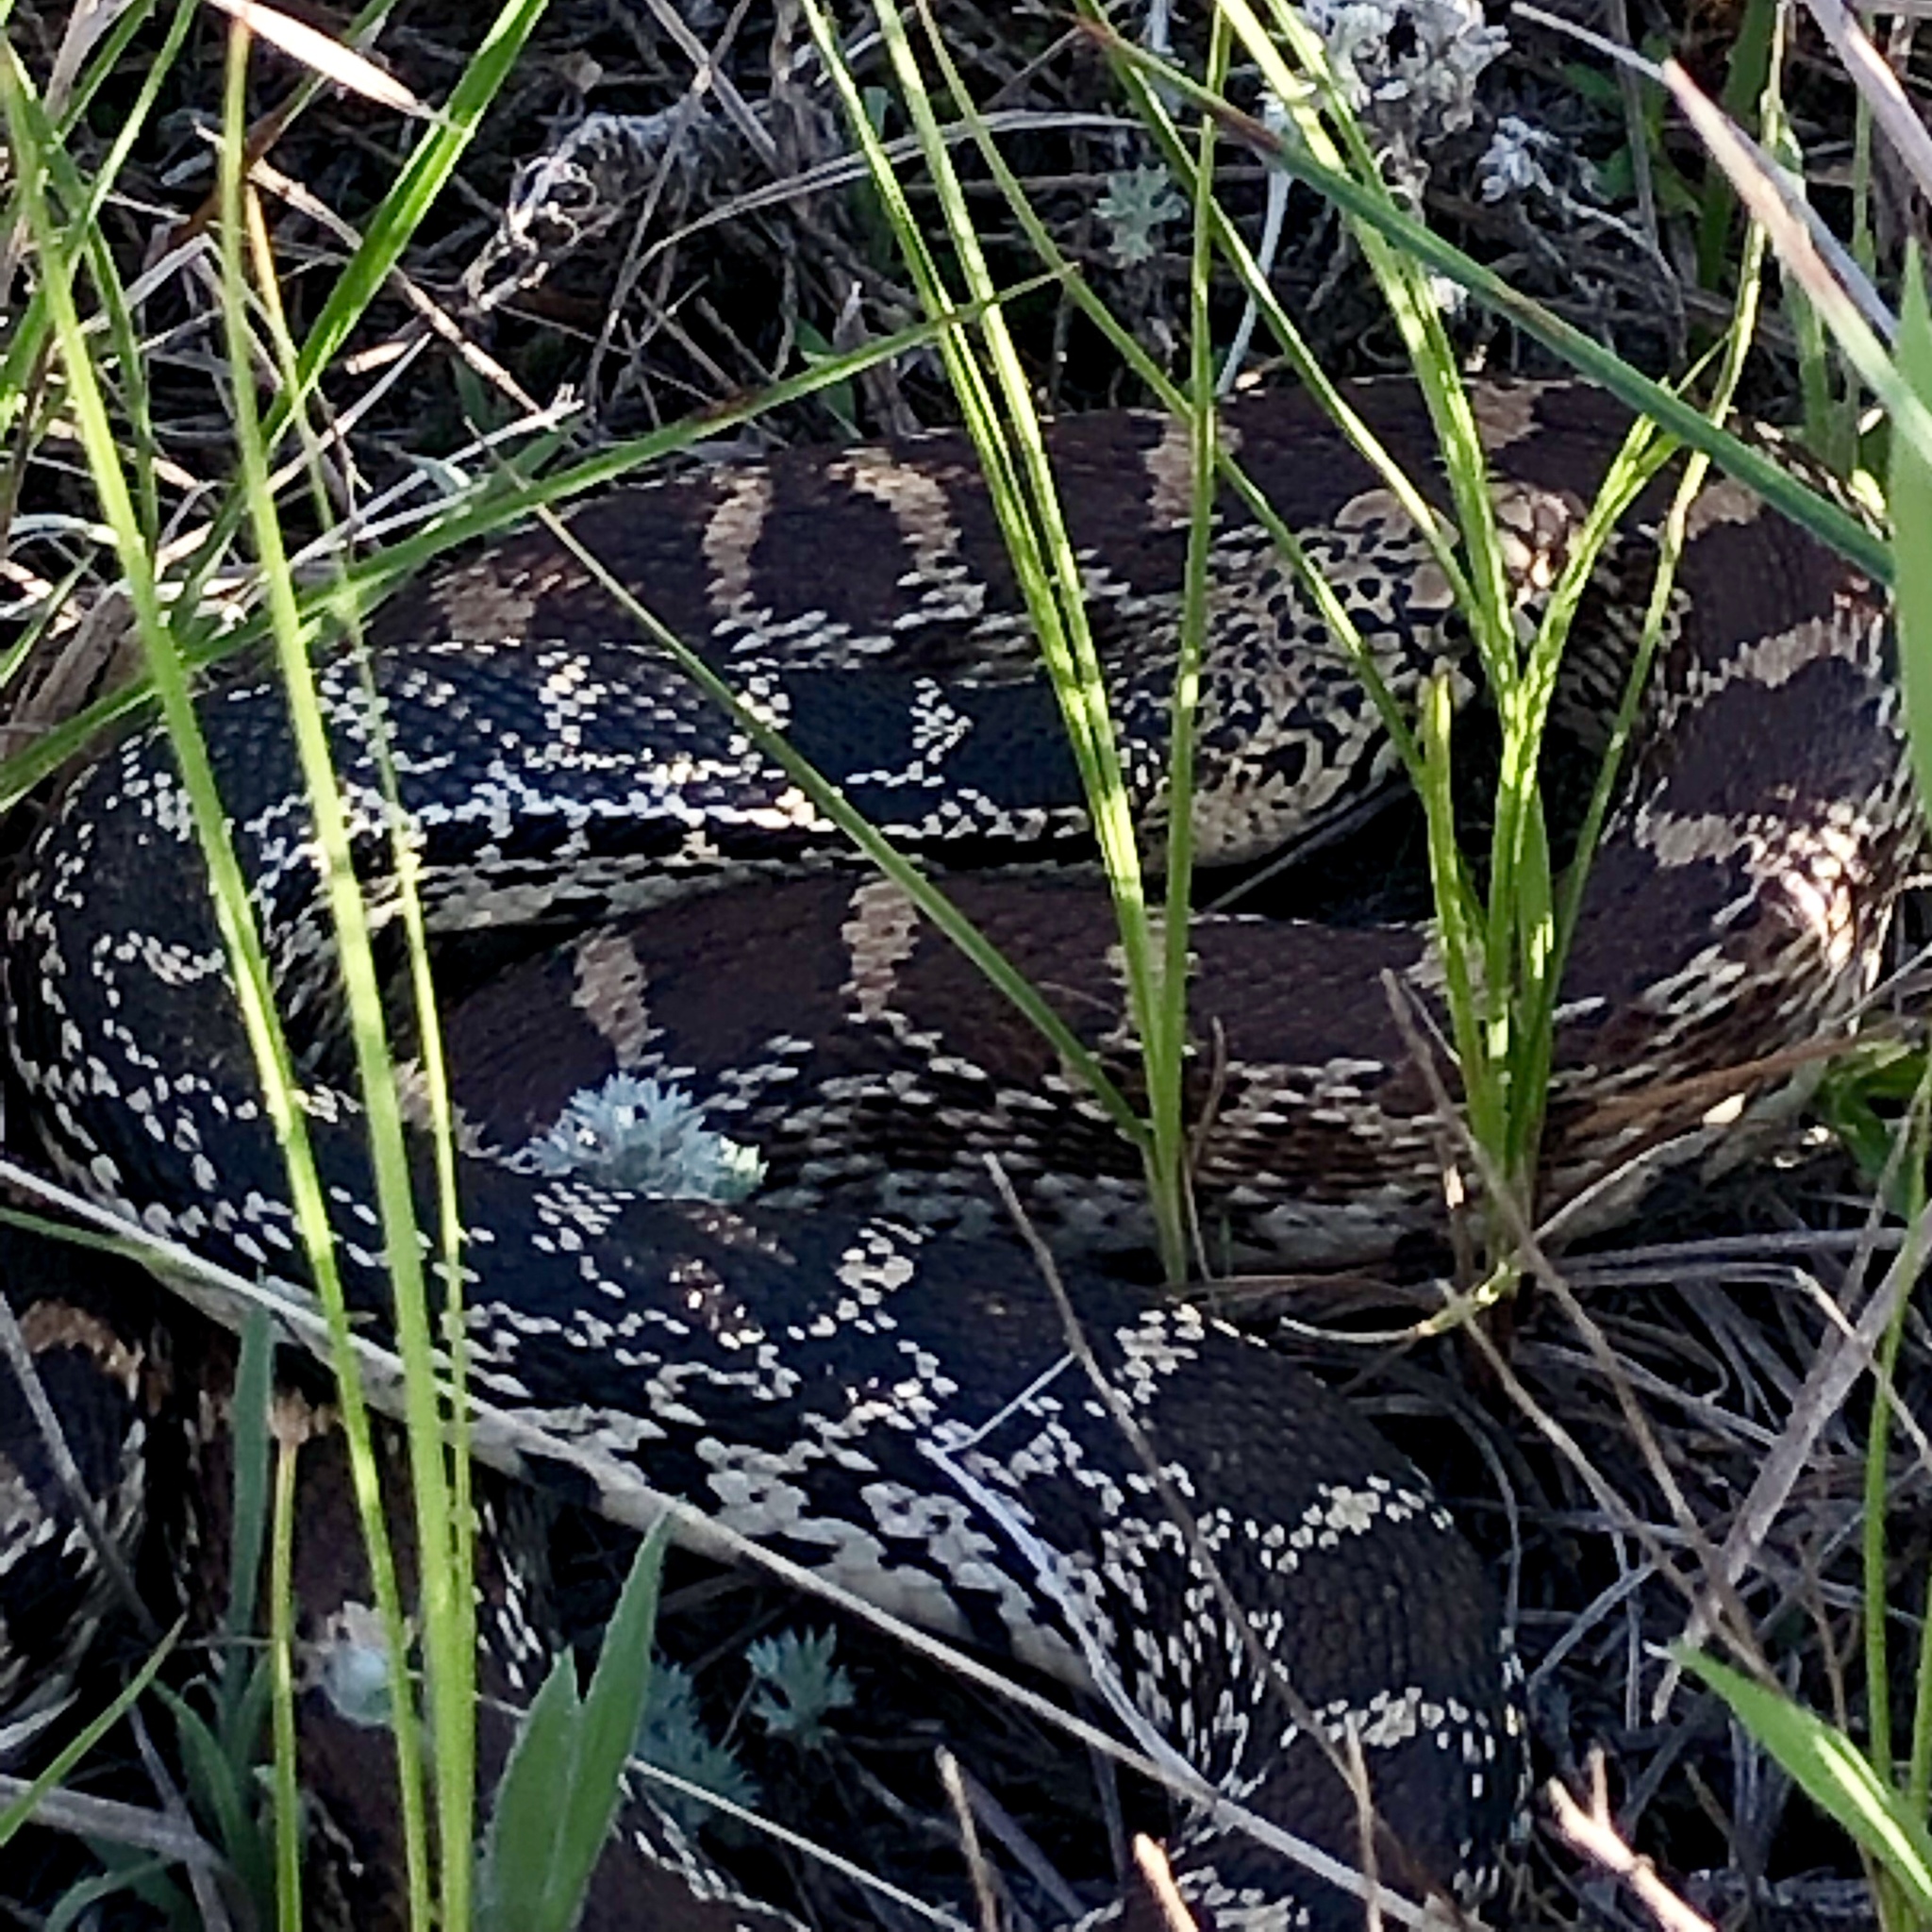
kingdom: Animalia
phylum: Chordata
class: Squamata
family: Colubridae
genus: Pituophis
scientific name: Pituophis catenifer
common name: Gopher snake
